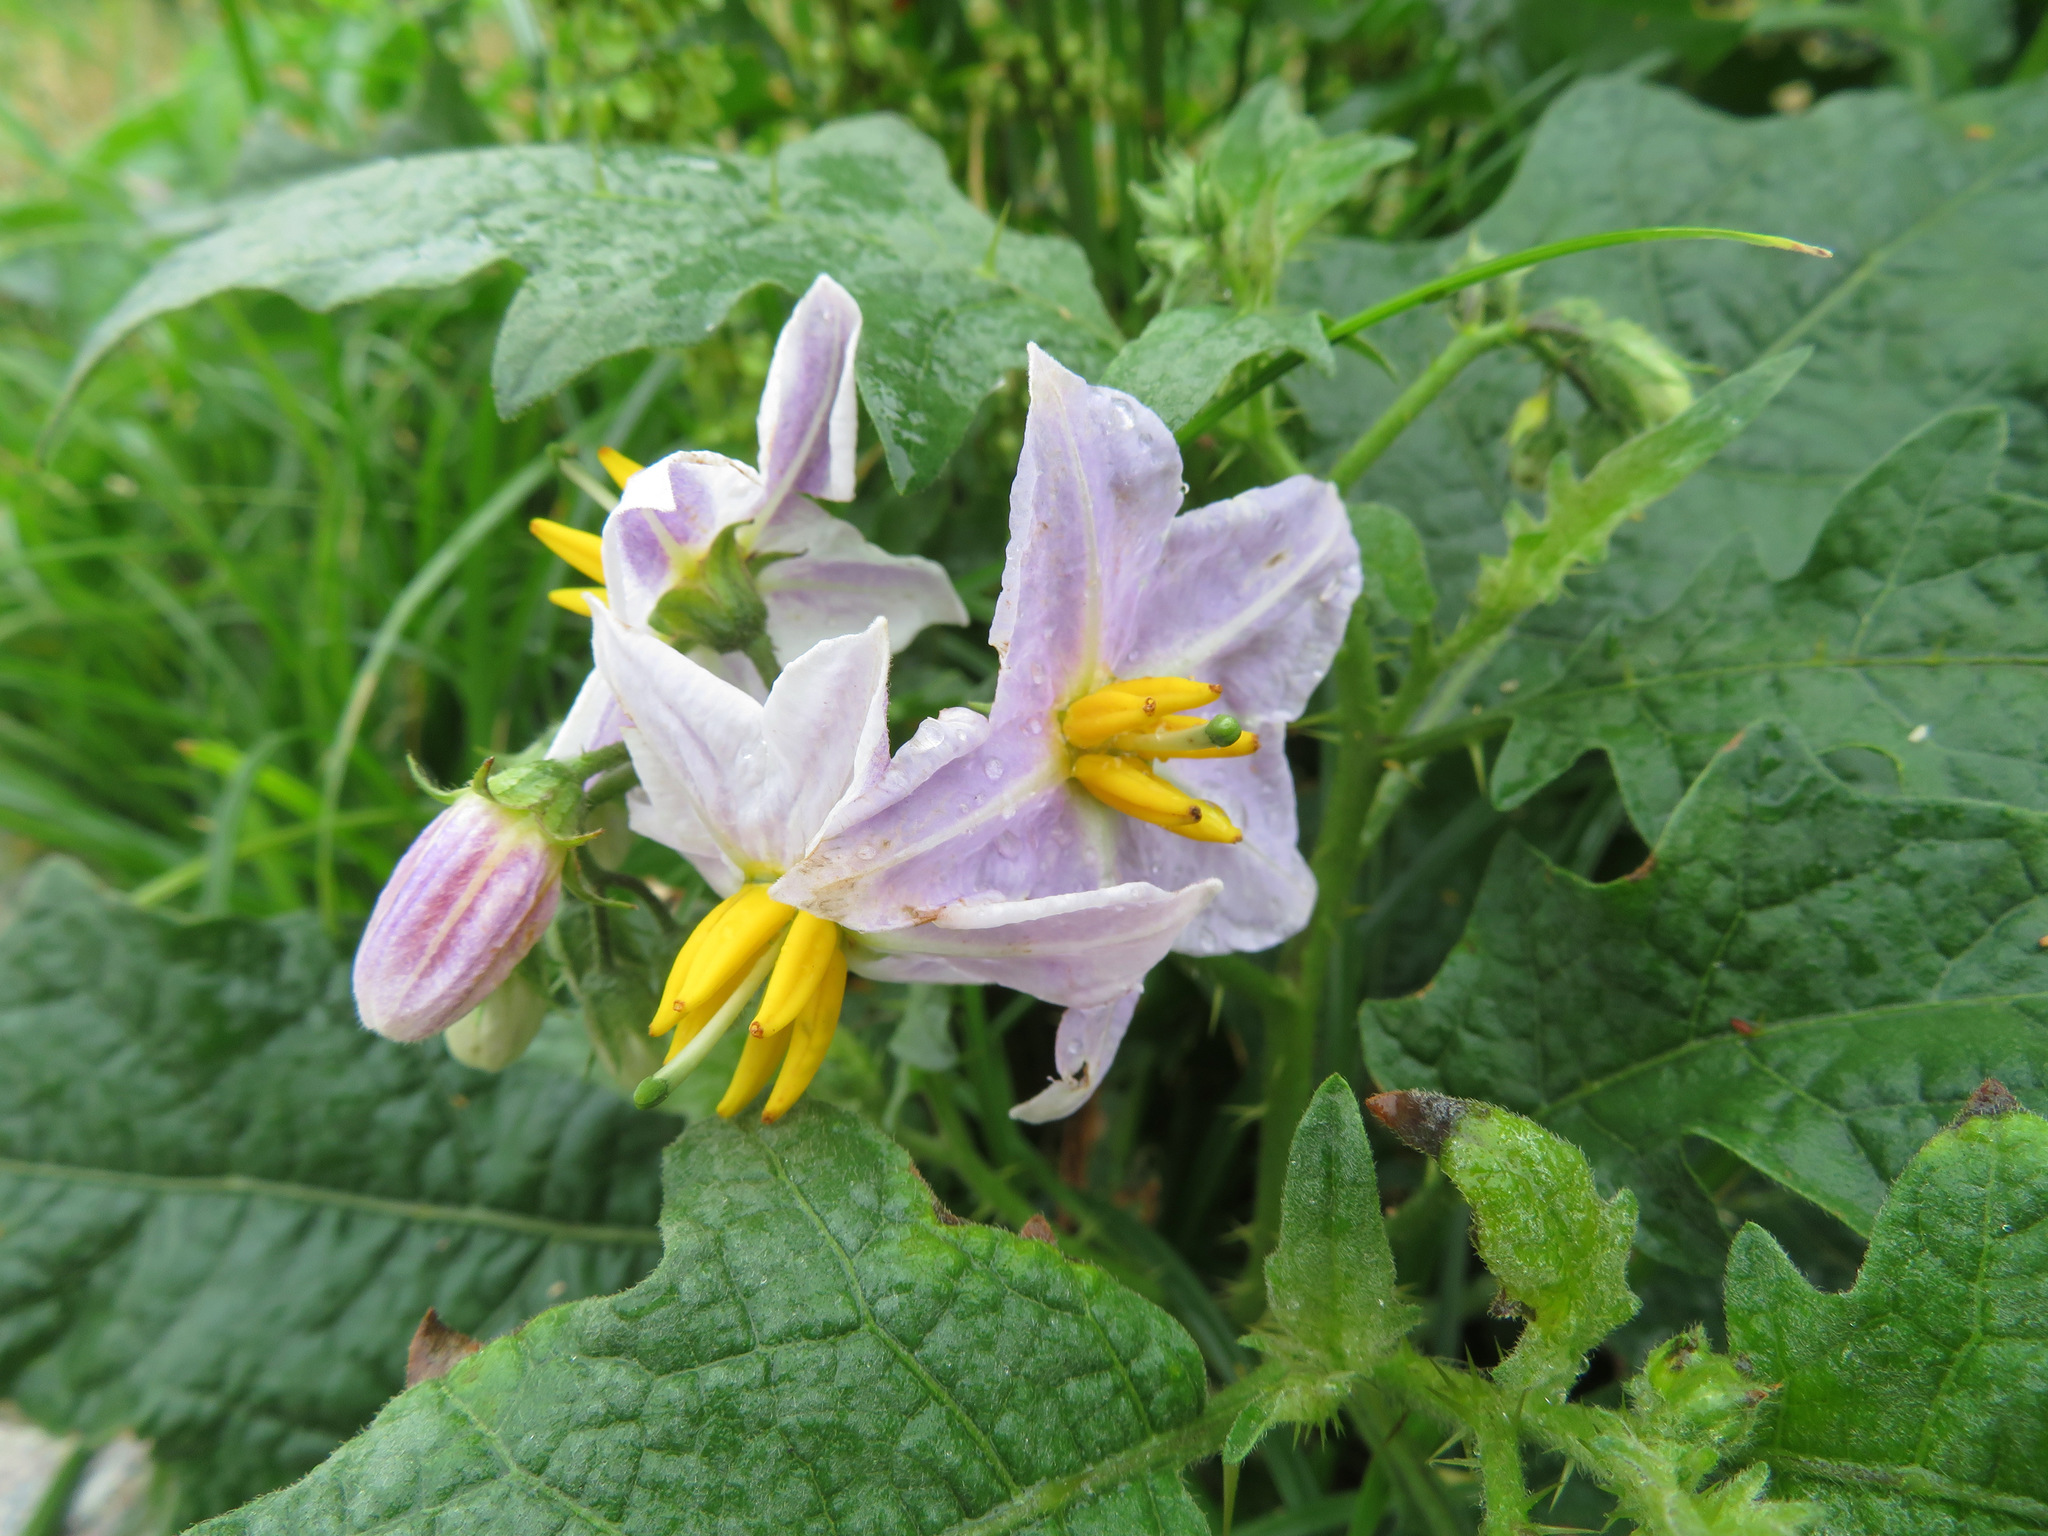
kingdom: Plantae
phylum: Tracheophyta
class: Magnoliopsida
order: Solanales
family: Solanaceae
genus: Solanum
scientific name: Solanum carolinense
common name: Horse-nettle
